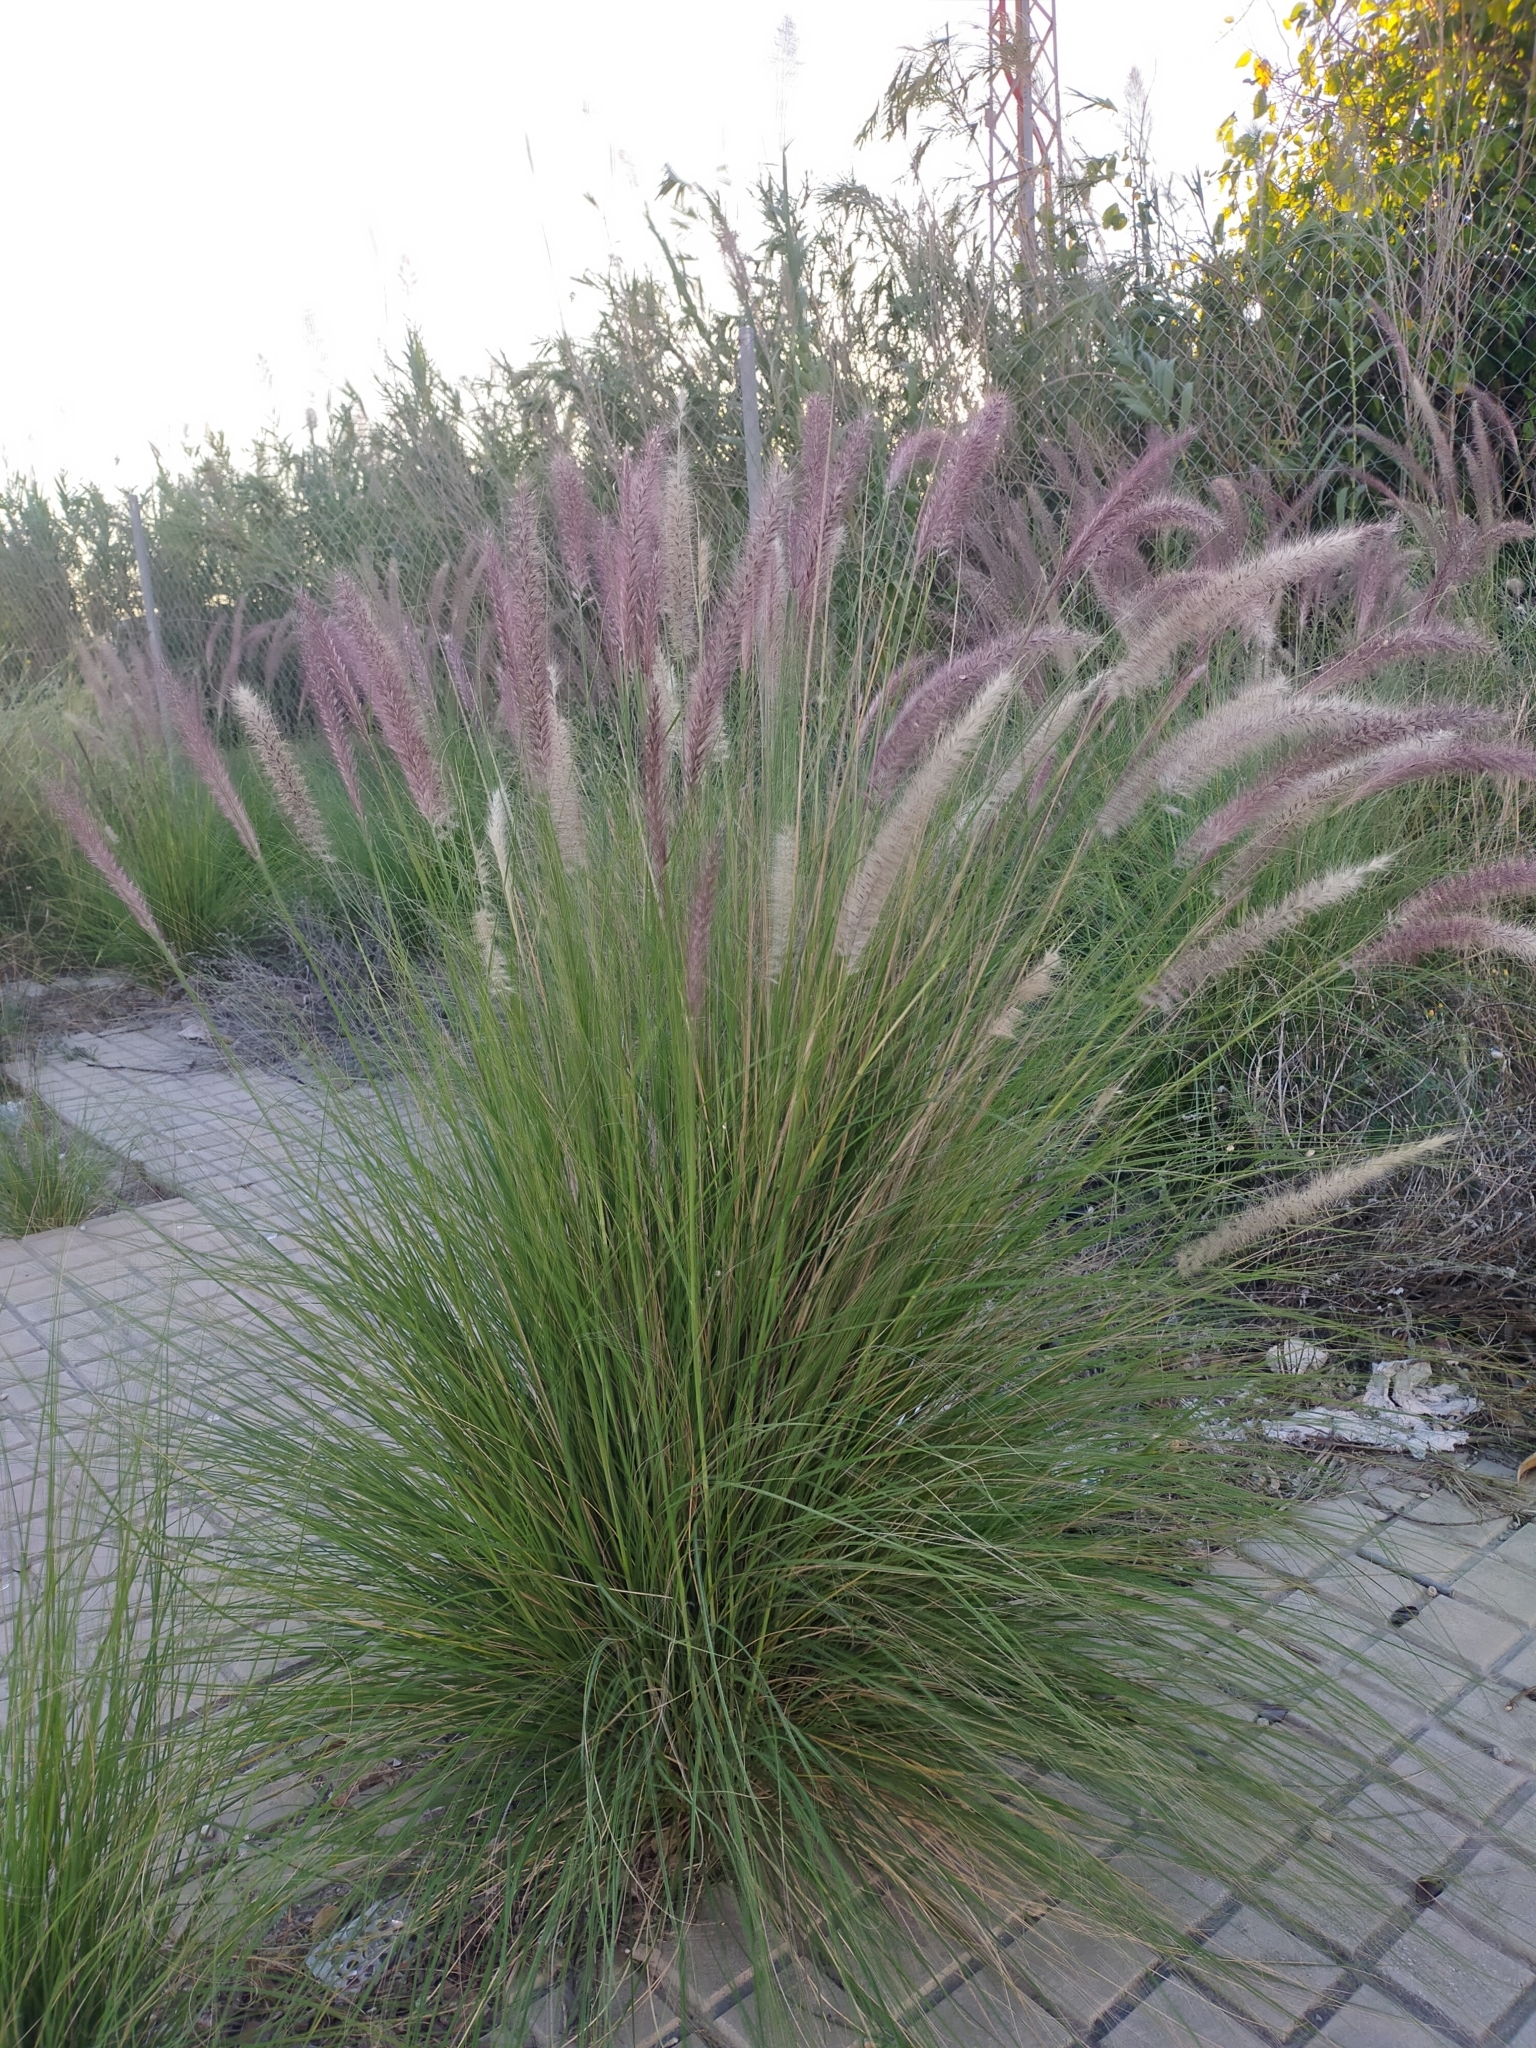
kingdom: Plantae
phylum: Tracheophyta
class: Liliopsida
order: Poales
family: Poaceae
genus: Cenchrus
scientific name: Cenchrus setaceus
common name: Crimson fountaingrass
